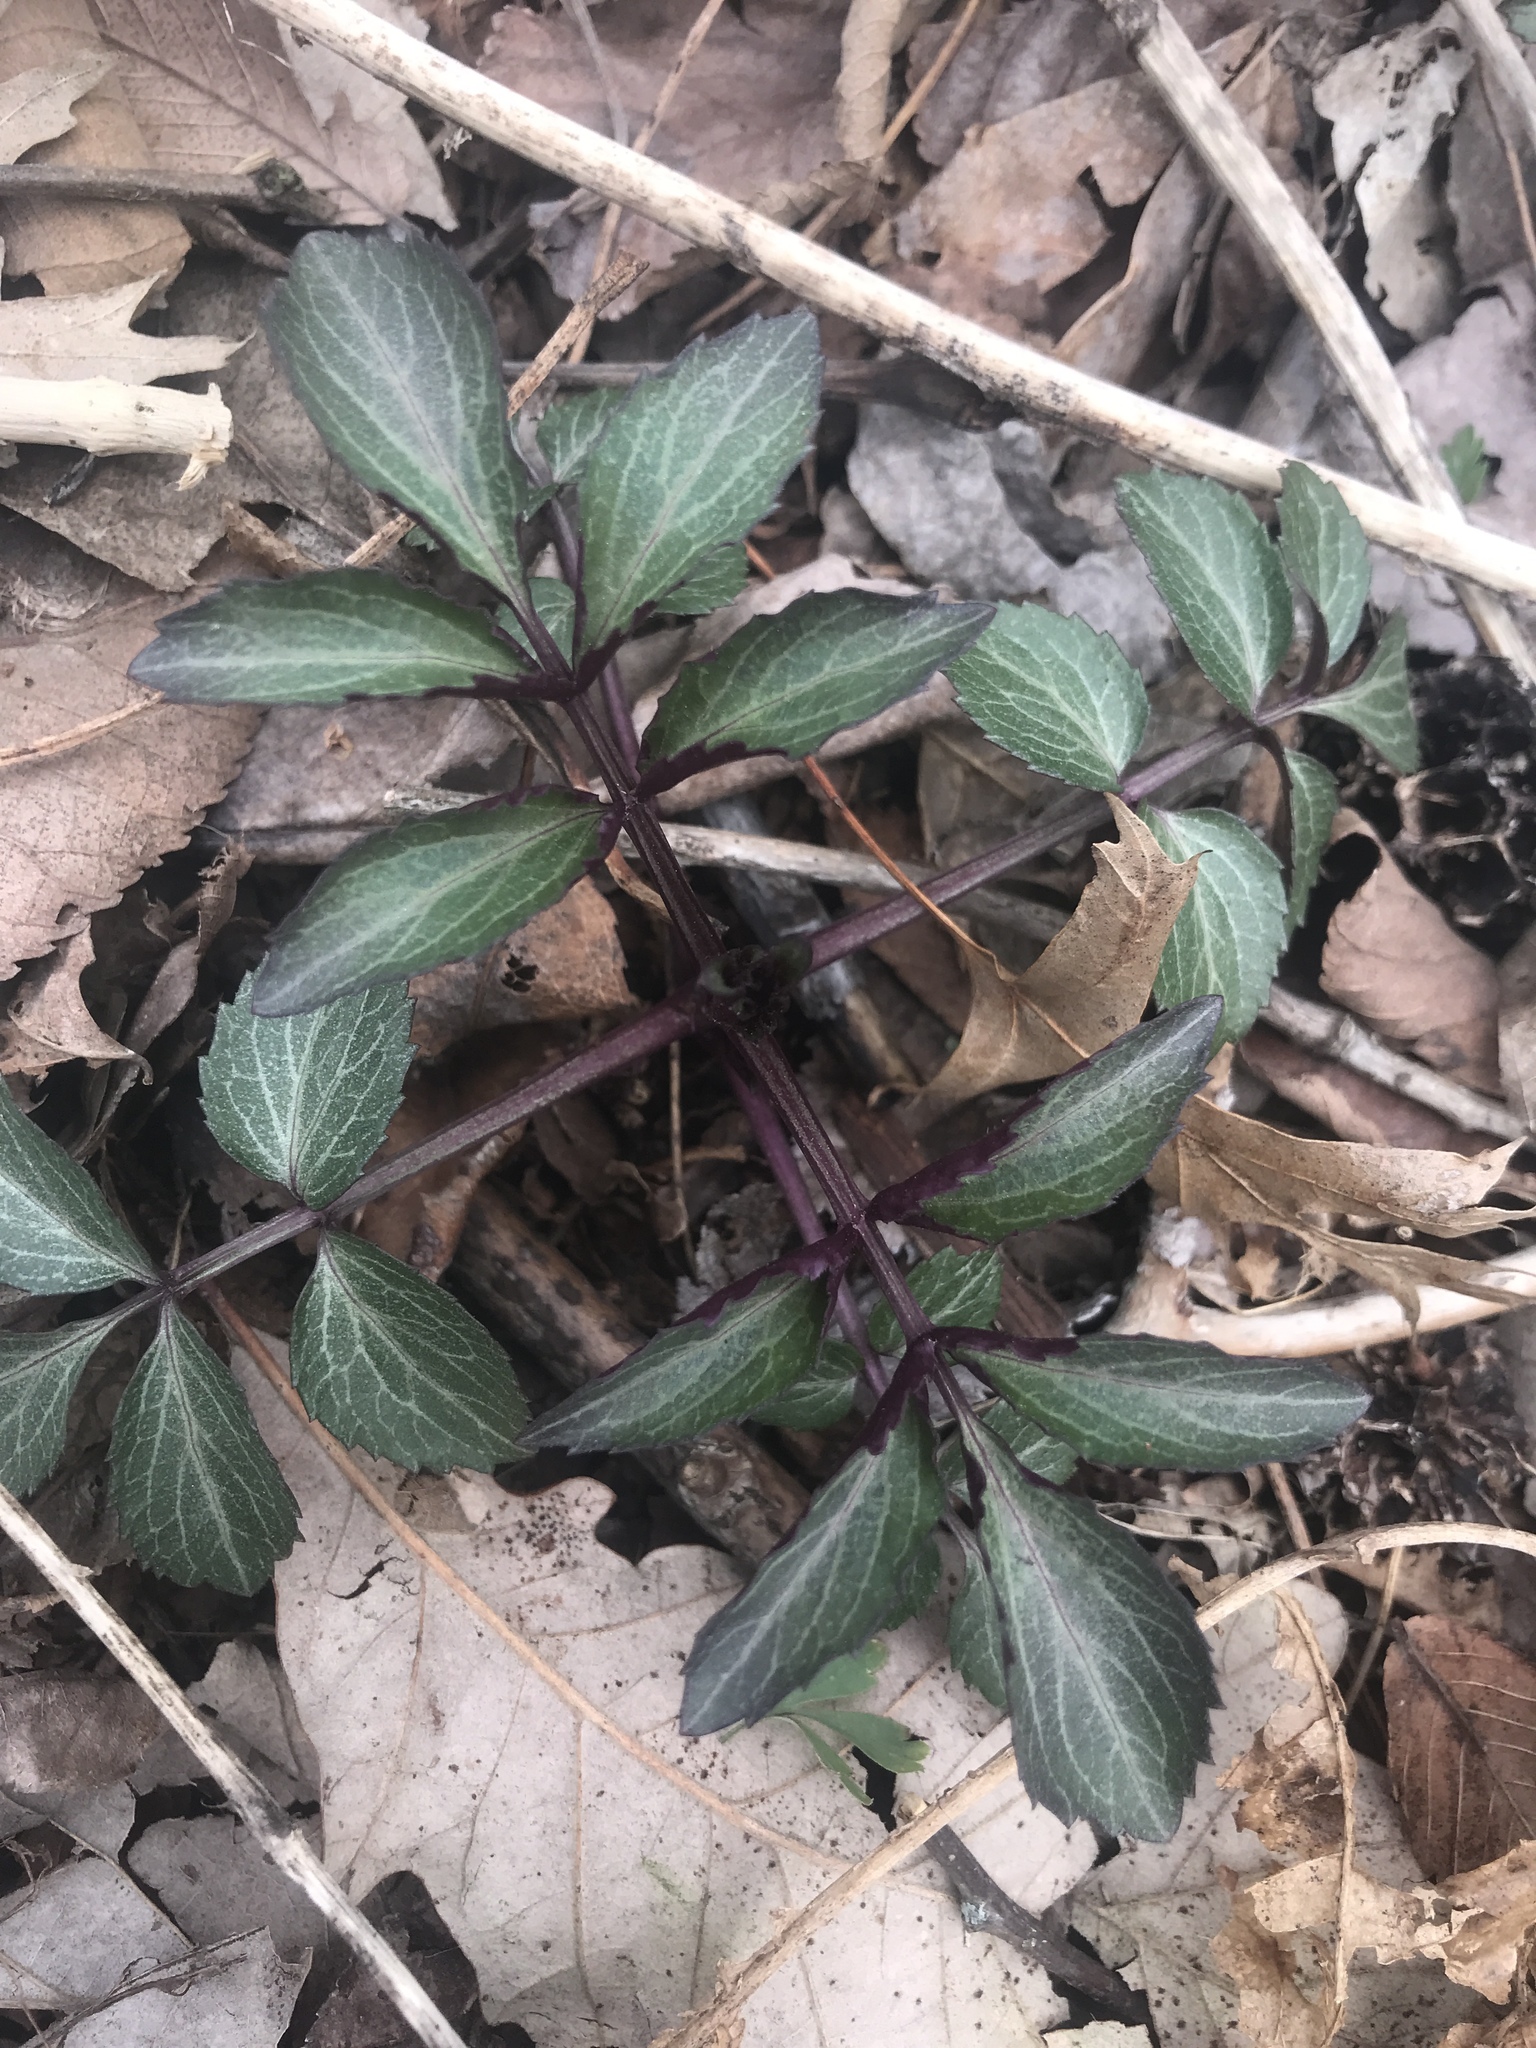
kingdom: Plantae
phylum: Tracheophyta
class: Magnoliopsida
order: Dipsacales
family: Viburnaceae
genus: Sambucus
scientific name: Sambucus canadensis
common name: American elder
